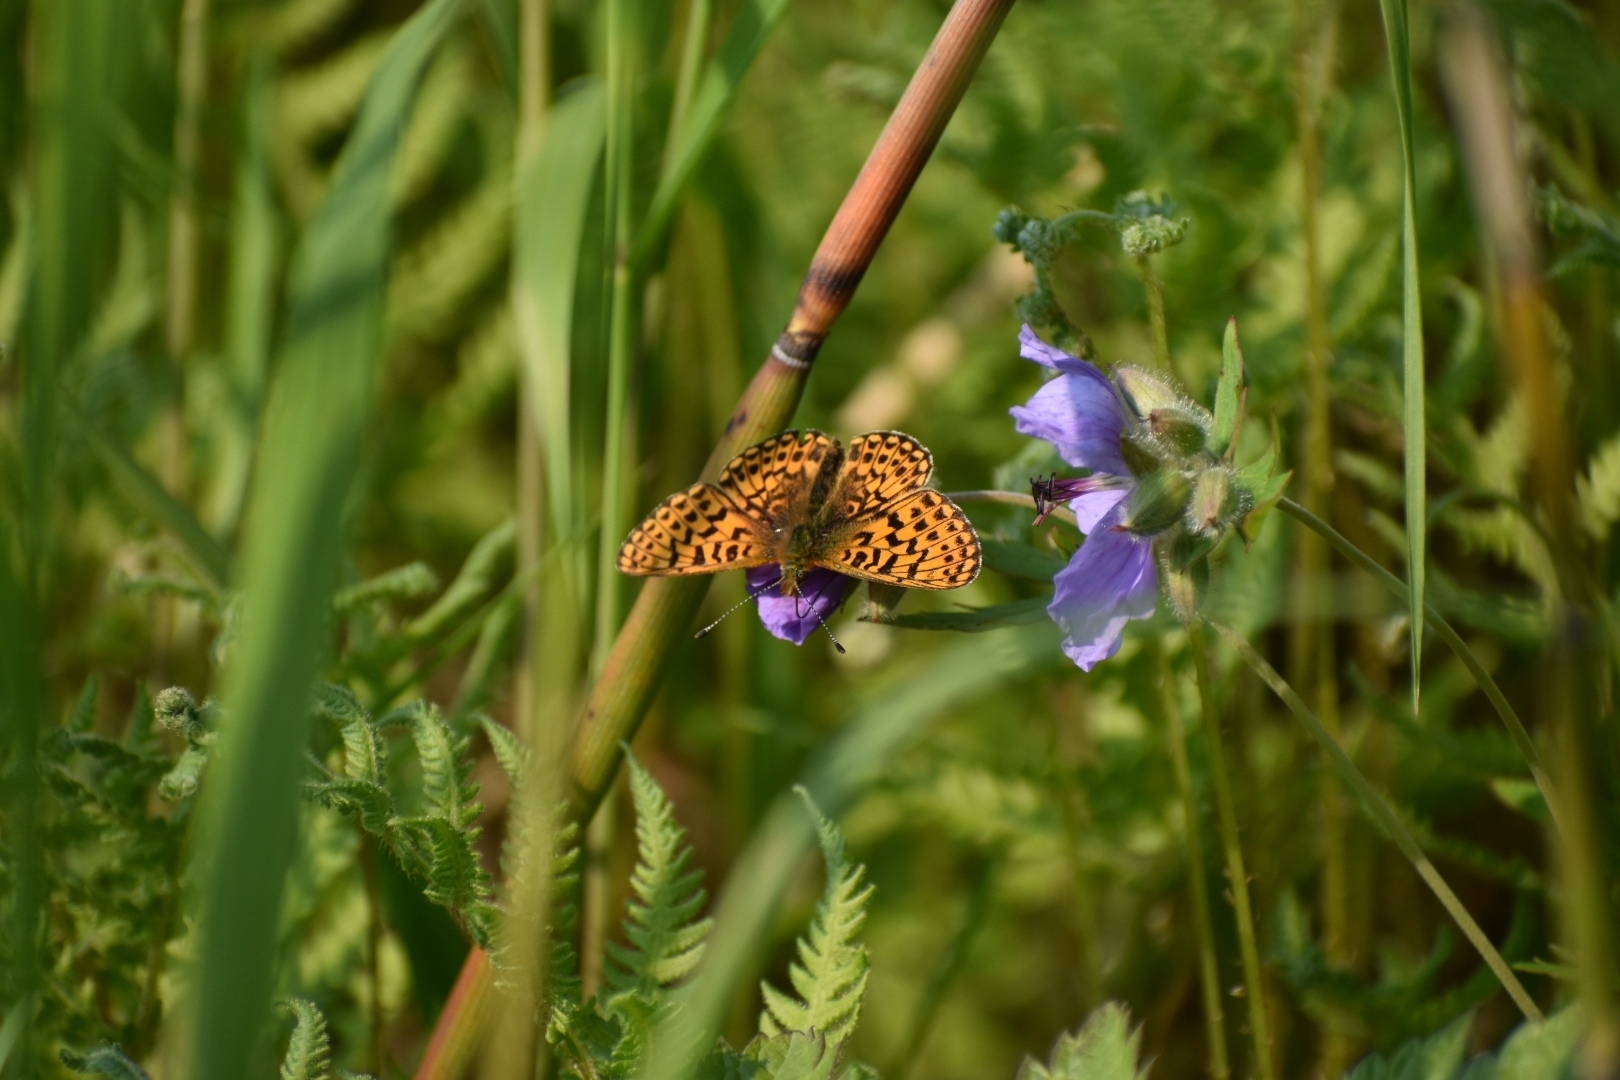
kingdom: Animalia
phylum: Arthropoda
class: Insecta
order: Lepidoptera
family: Nymphalidae
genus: Clossiana
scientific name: Clossiana euphrosyne
